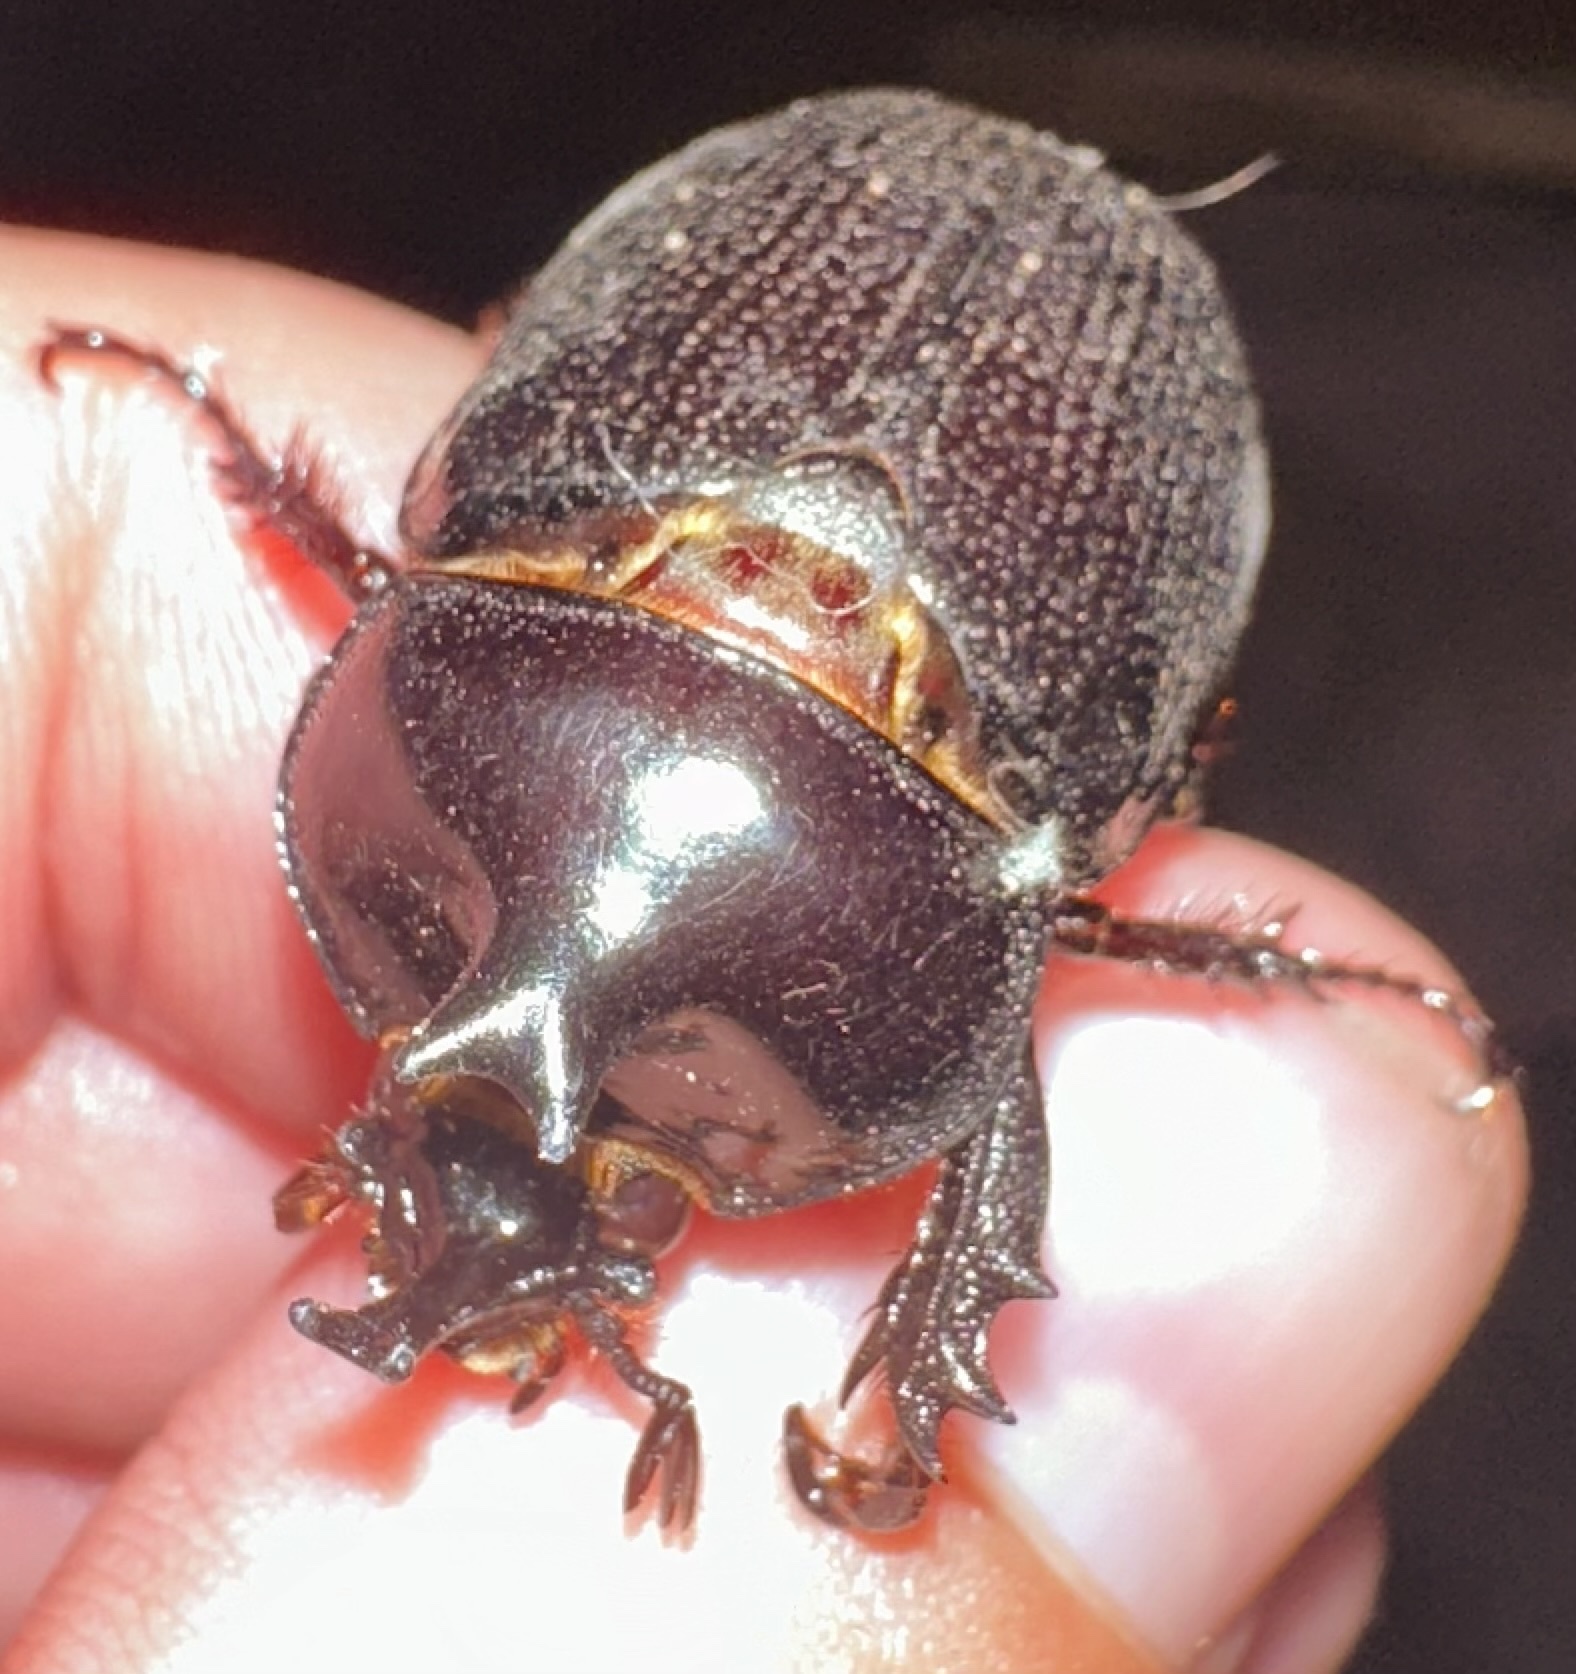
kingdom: Animalia
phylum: Arthropoda
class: Insecta
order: Coleoptera
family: Scarabaeidae
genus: Cyphonistes
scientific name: Cyphonistes vallatus
